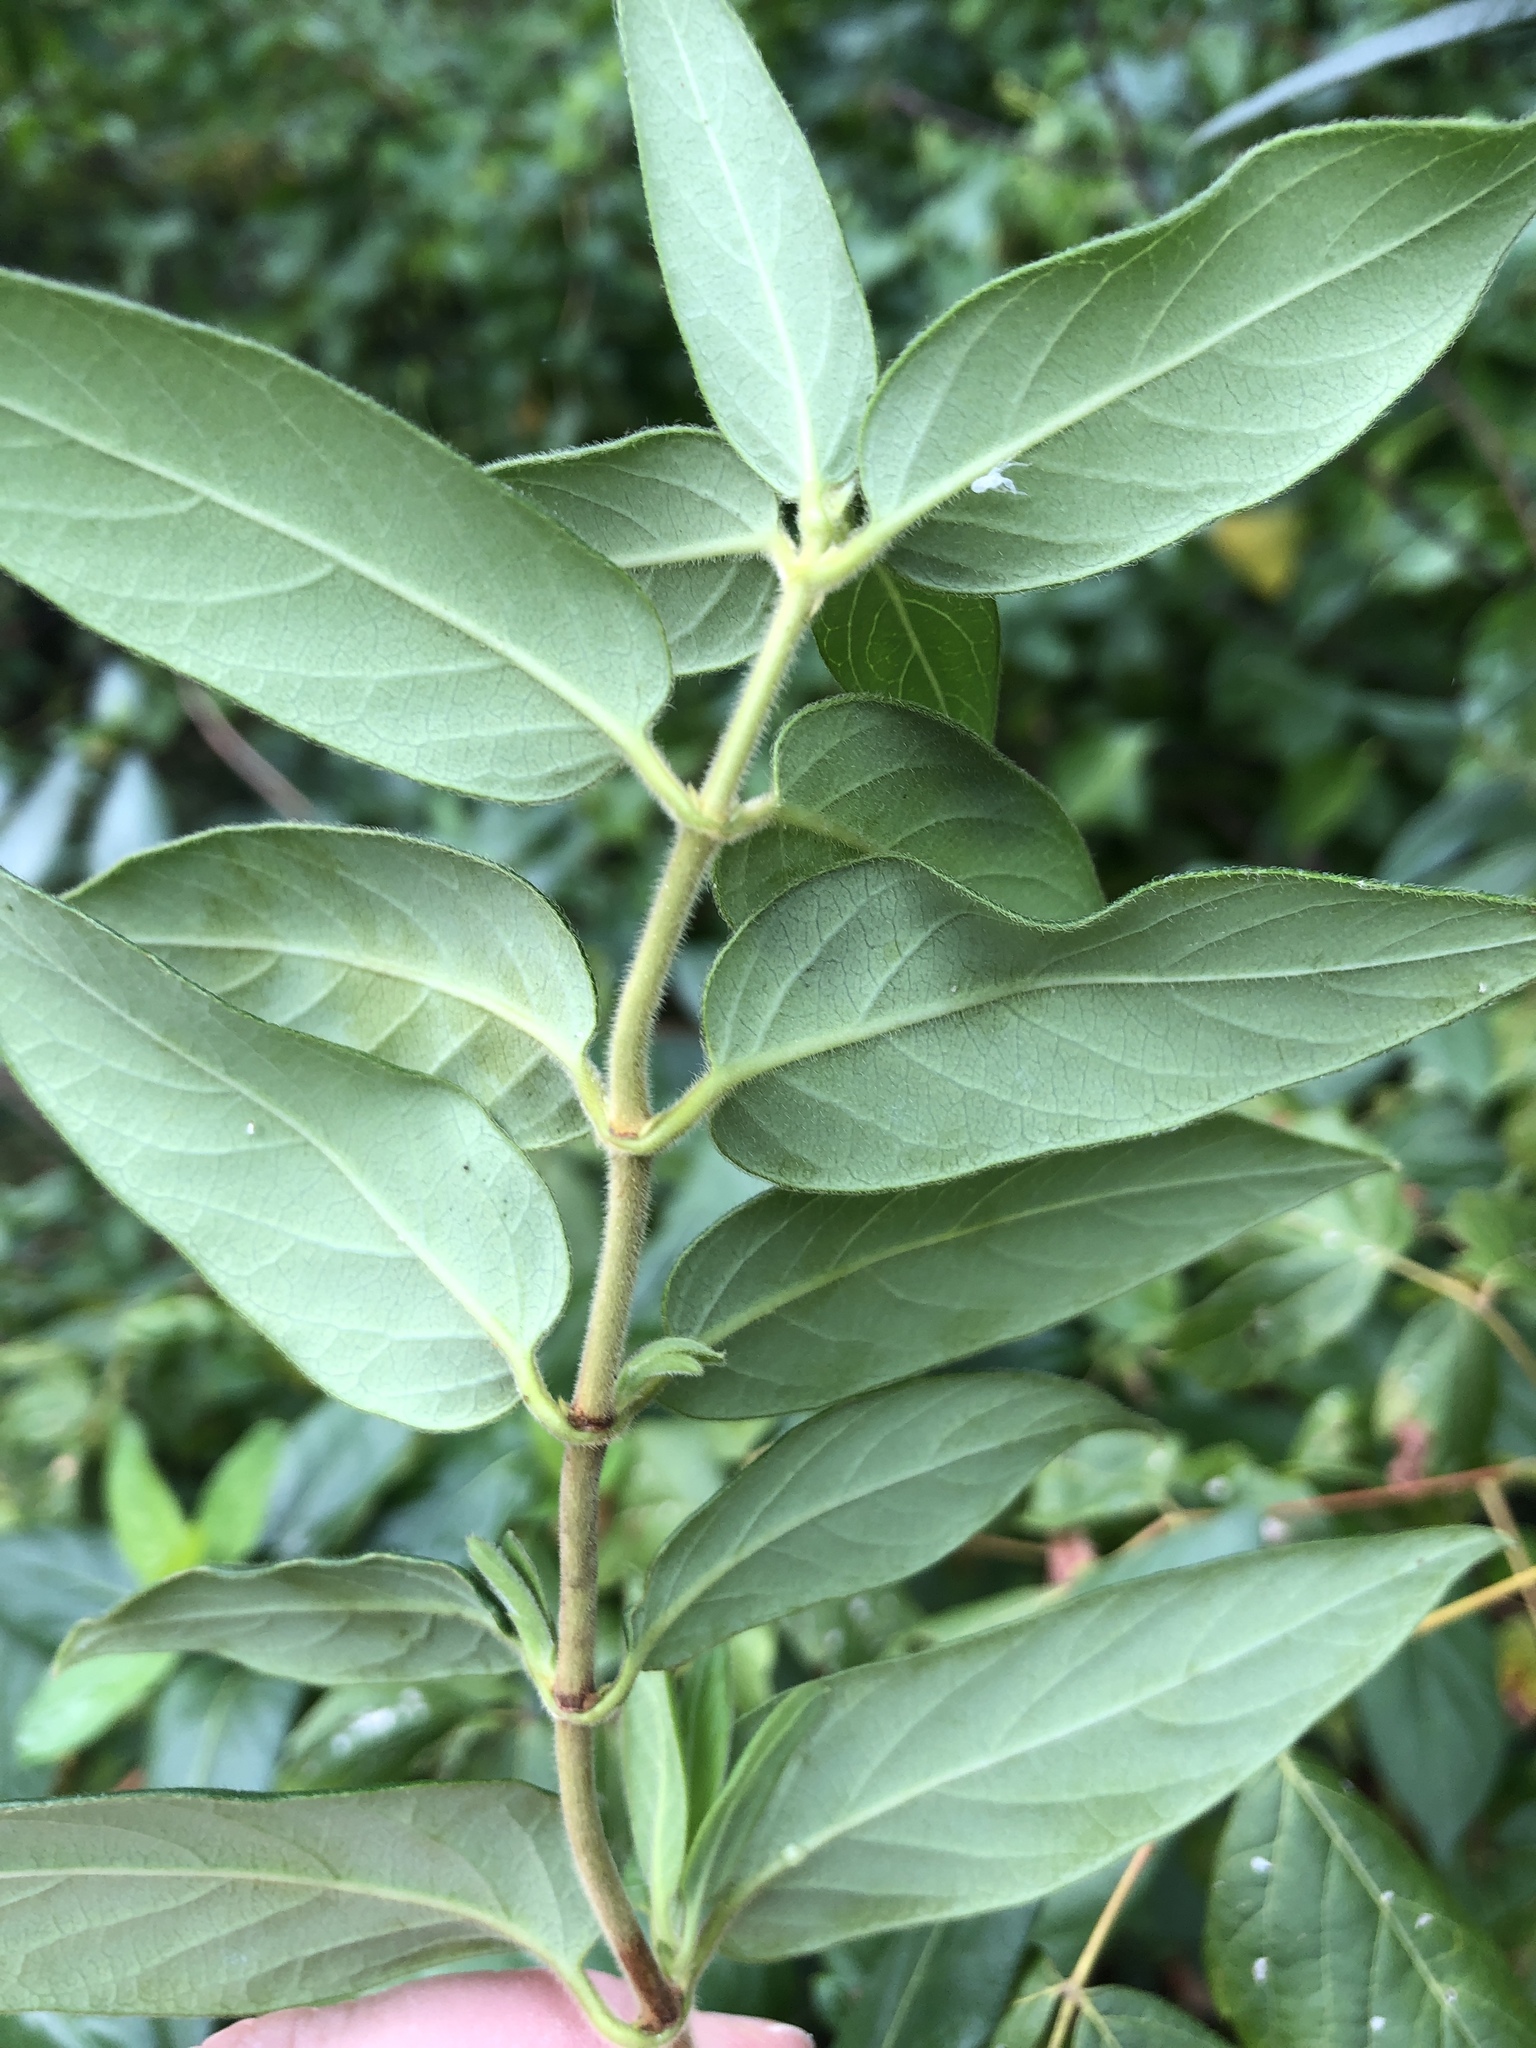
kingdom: Plantae
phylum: Tracheophyta
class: Magnoliopsida
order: Dipsacales
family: Caprifoliaceae
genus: Lonicera
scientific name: Lonicera japonica
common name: Japanese honeysuckle
